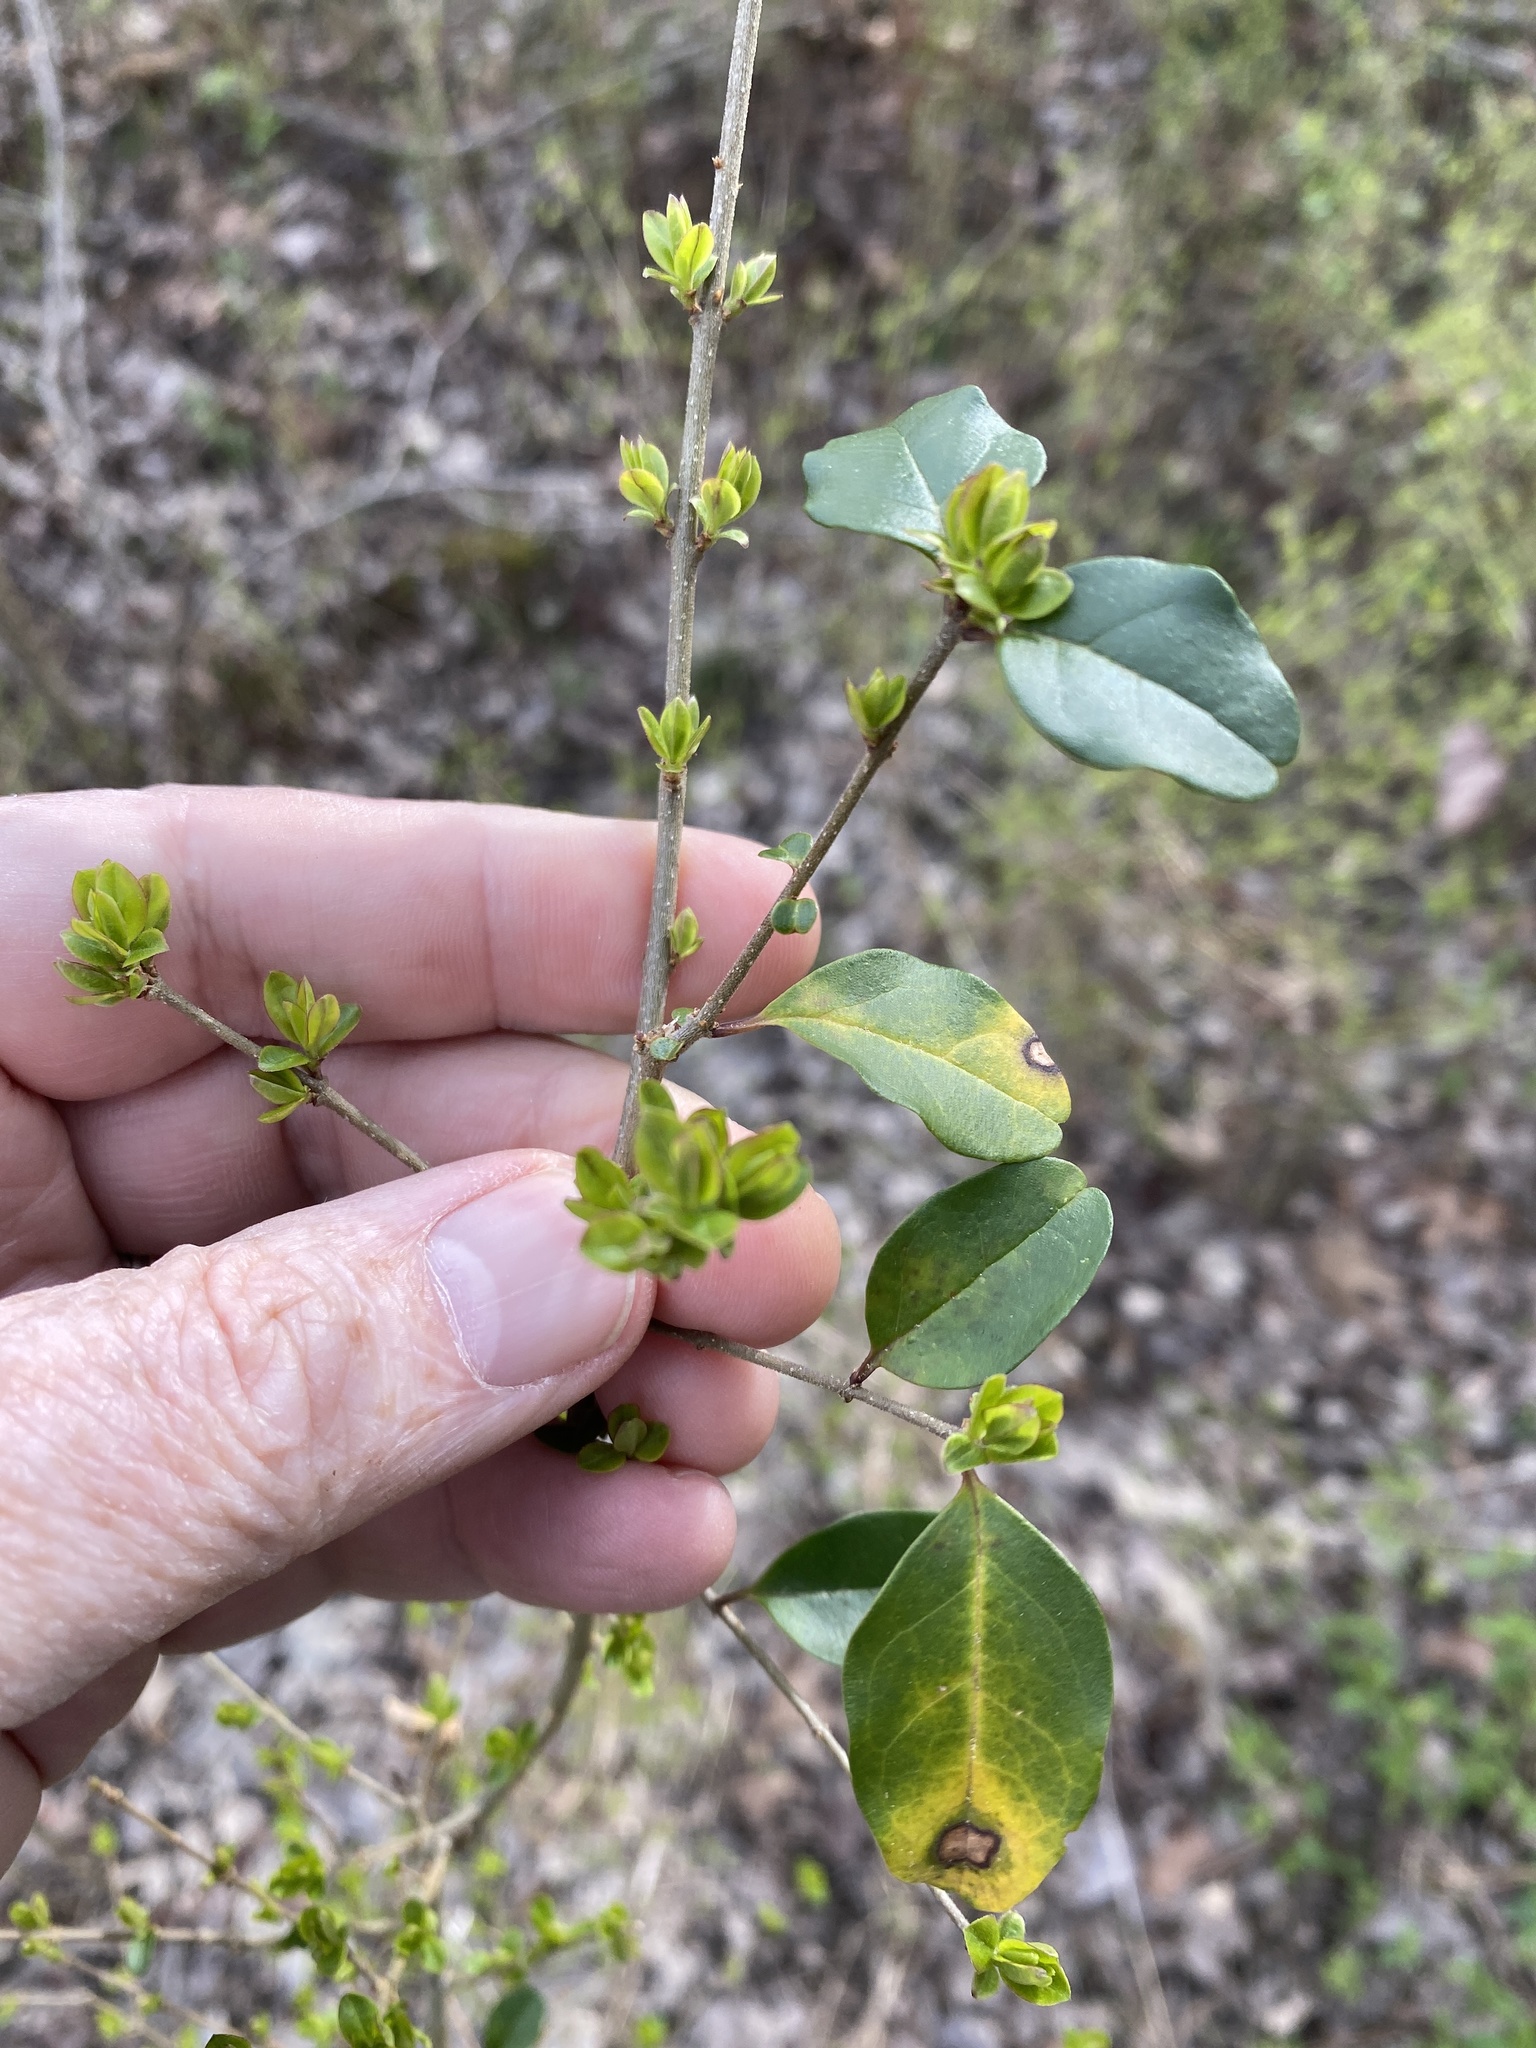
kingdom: Plantae
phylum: Tracheophyta
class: Magnoliopsida
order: Lamiales
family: Oleaceae
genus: Ligustrum
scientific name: Ligustrum sinense
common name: Chinese privet
